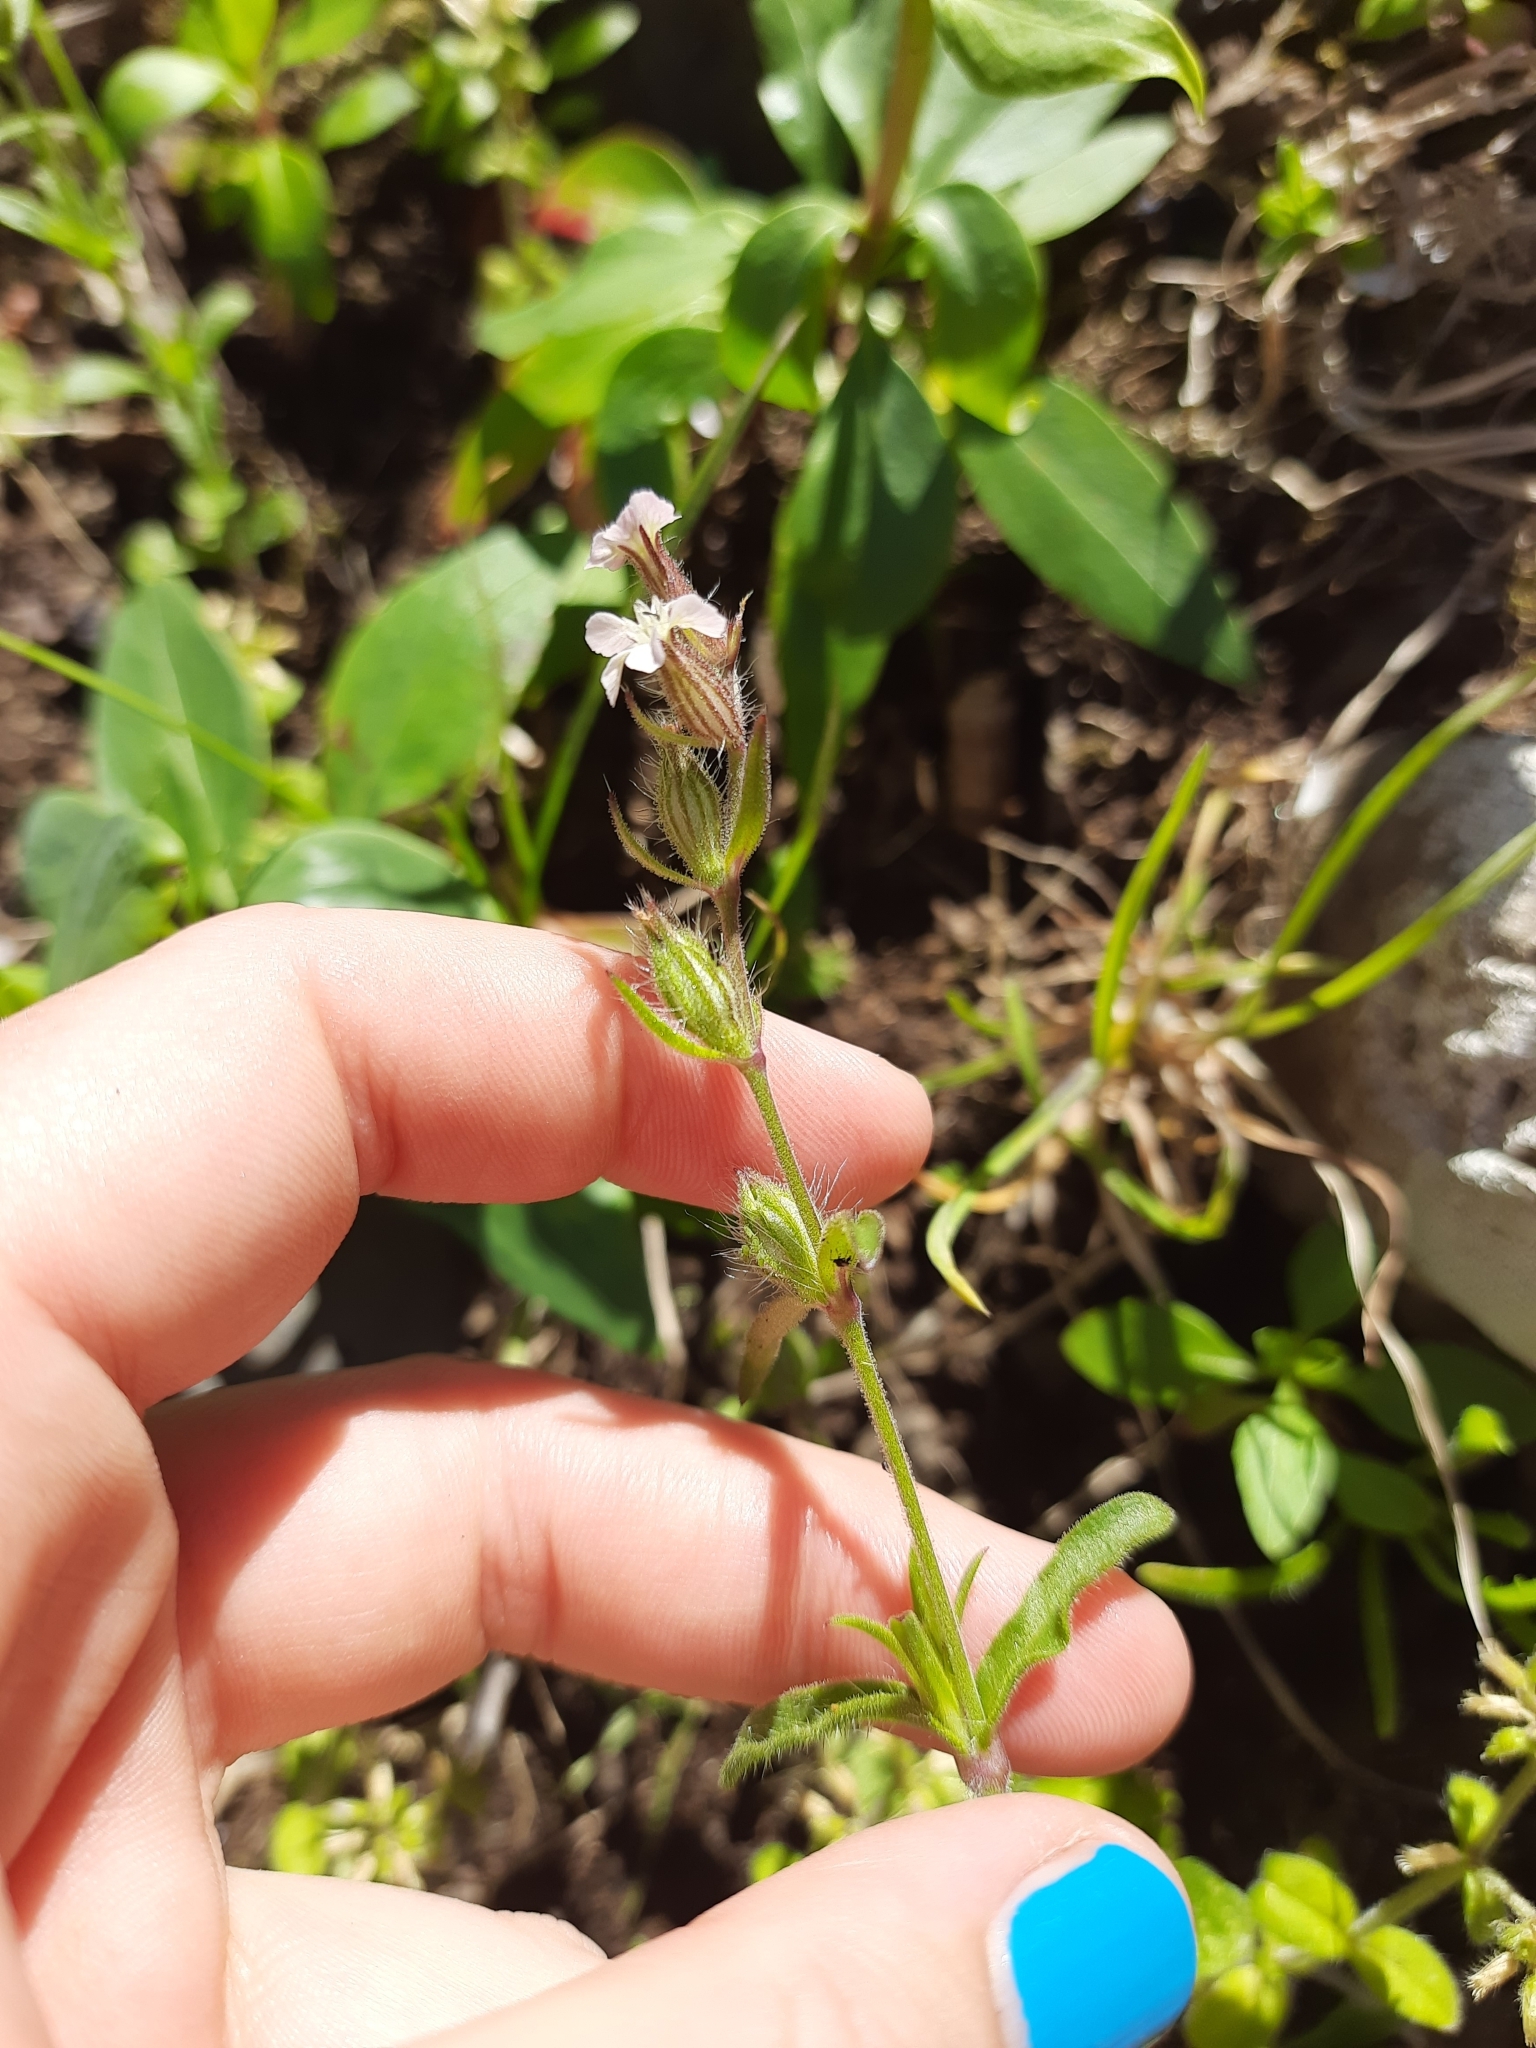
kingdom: Plantae
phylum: Tracheophyta
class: Magnoliopsida
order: Caryophyllales
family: Caryophyllaceae
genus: Silene
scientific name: Silene gallica
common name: Small-flowered catchfly
